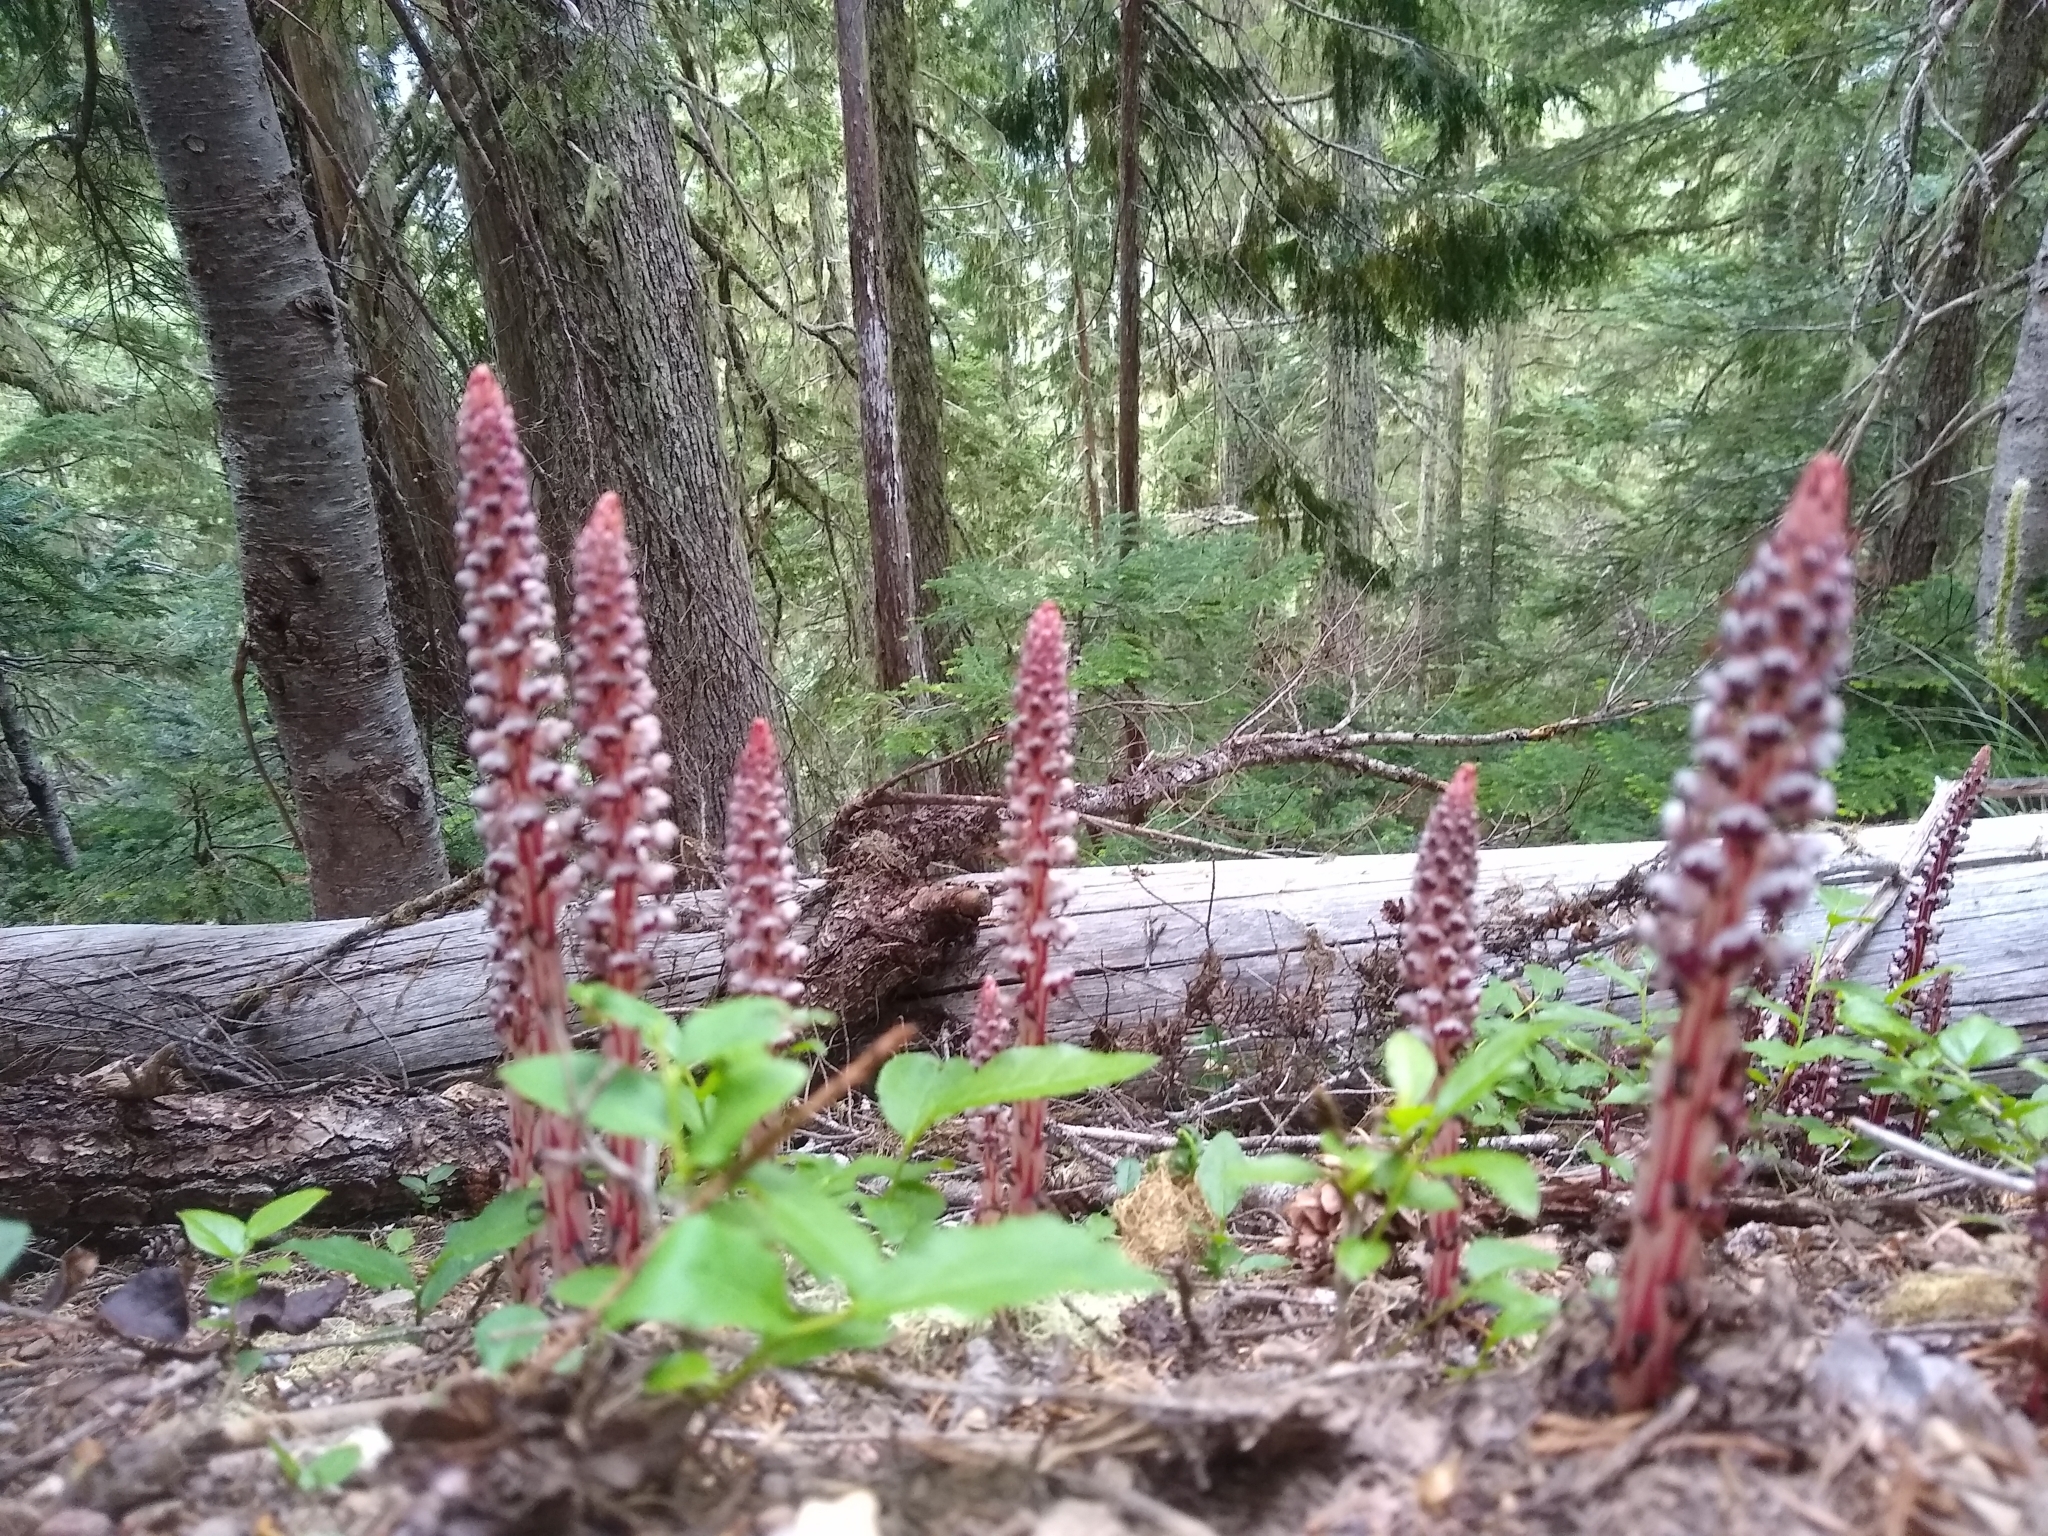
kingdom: Plantae
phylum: Tracheophyta
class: Magnoliopsida
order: Ericales
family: Ericaceae
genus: Allotropa
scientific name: Allotropa virgata
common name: Candy-striped allotropa
